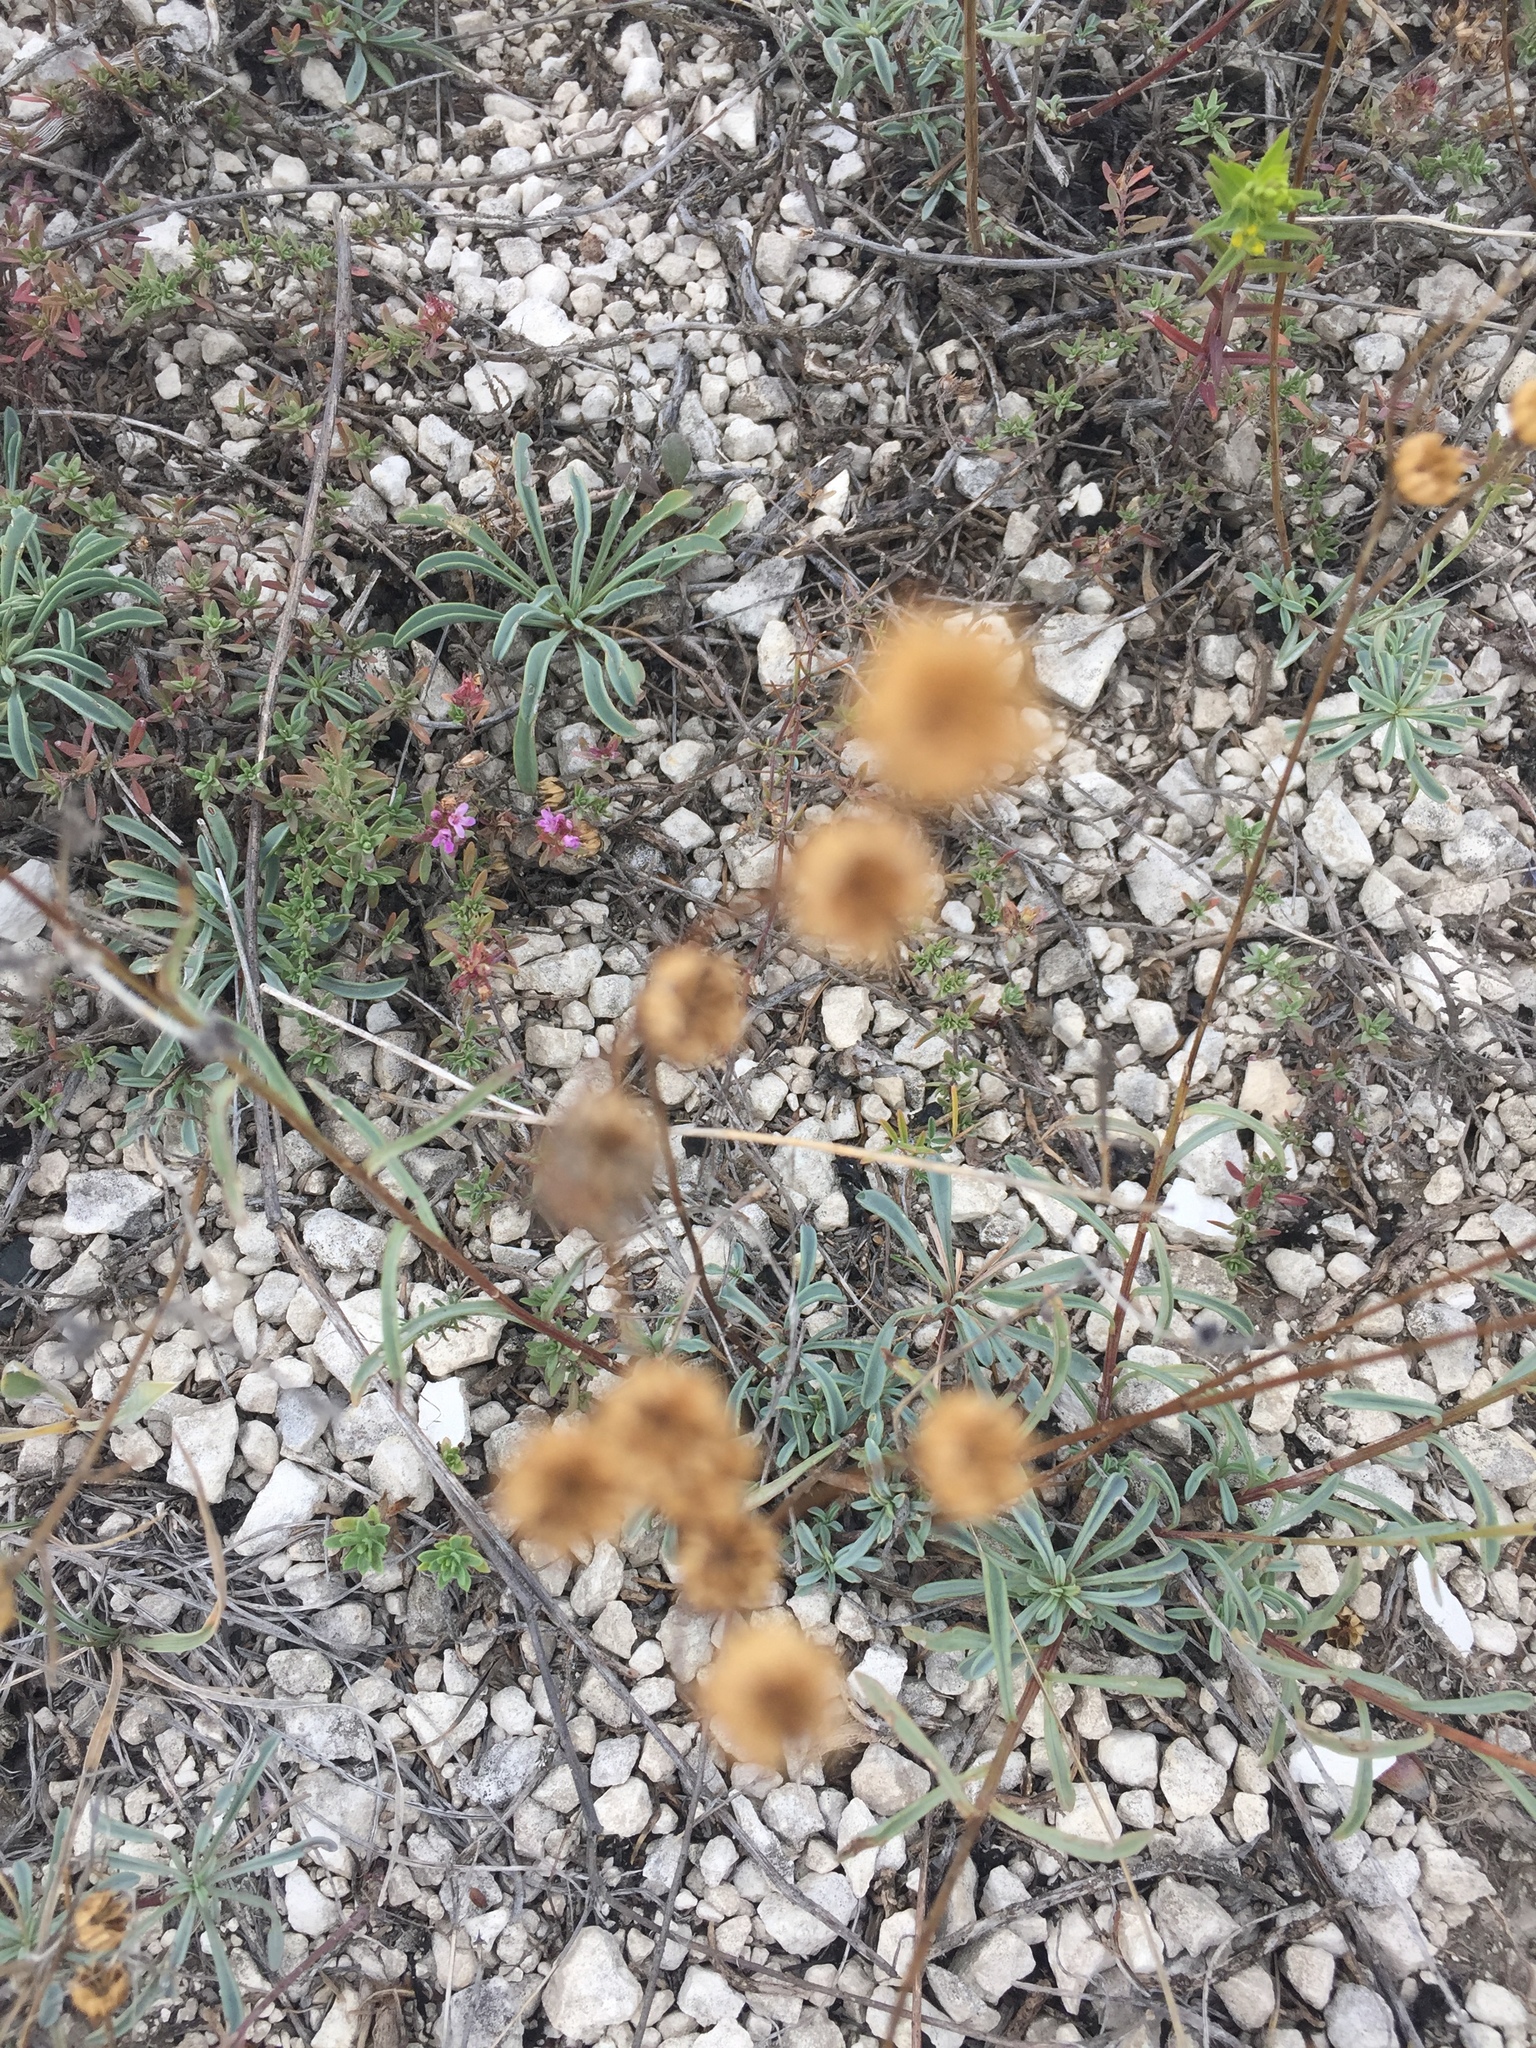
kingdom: Plantae
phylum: Tracheophyta
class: Magnoliopsida
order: Malpighiales
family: Linaceae
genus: Linum
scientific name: Linum ucranicum
